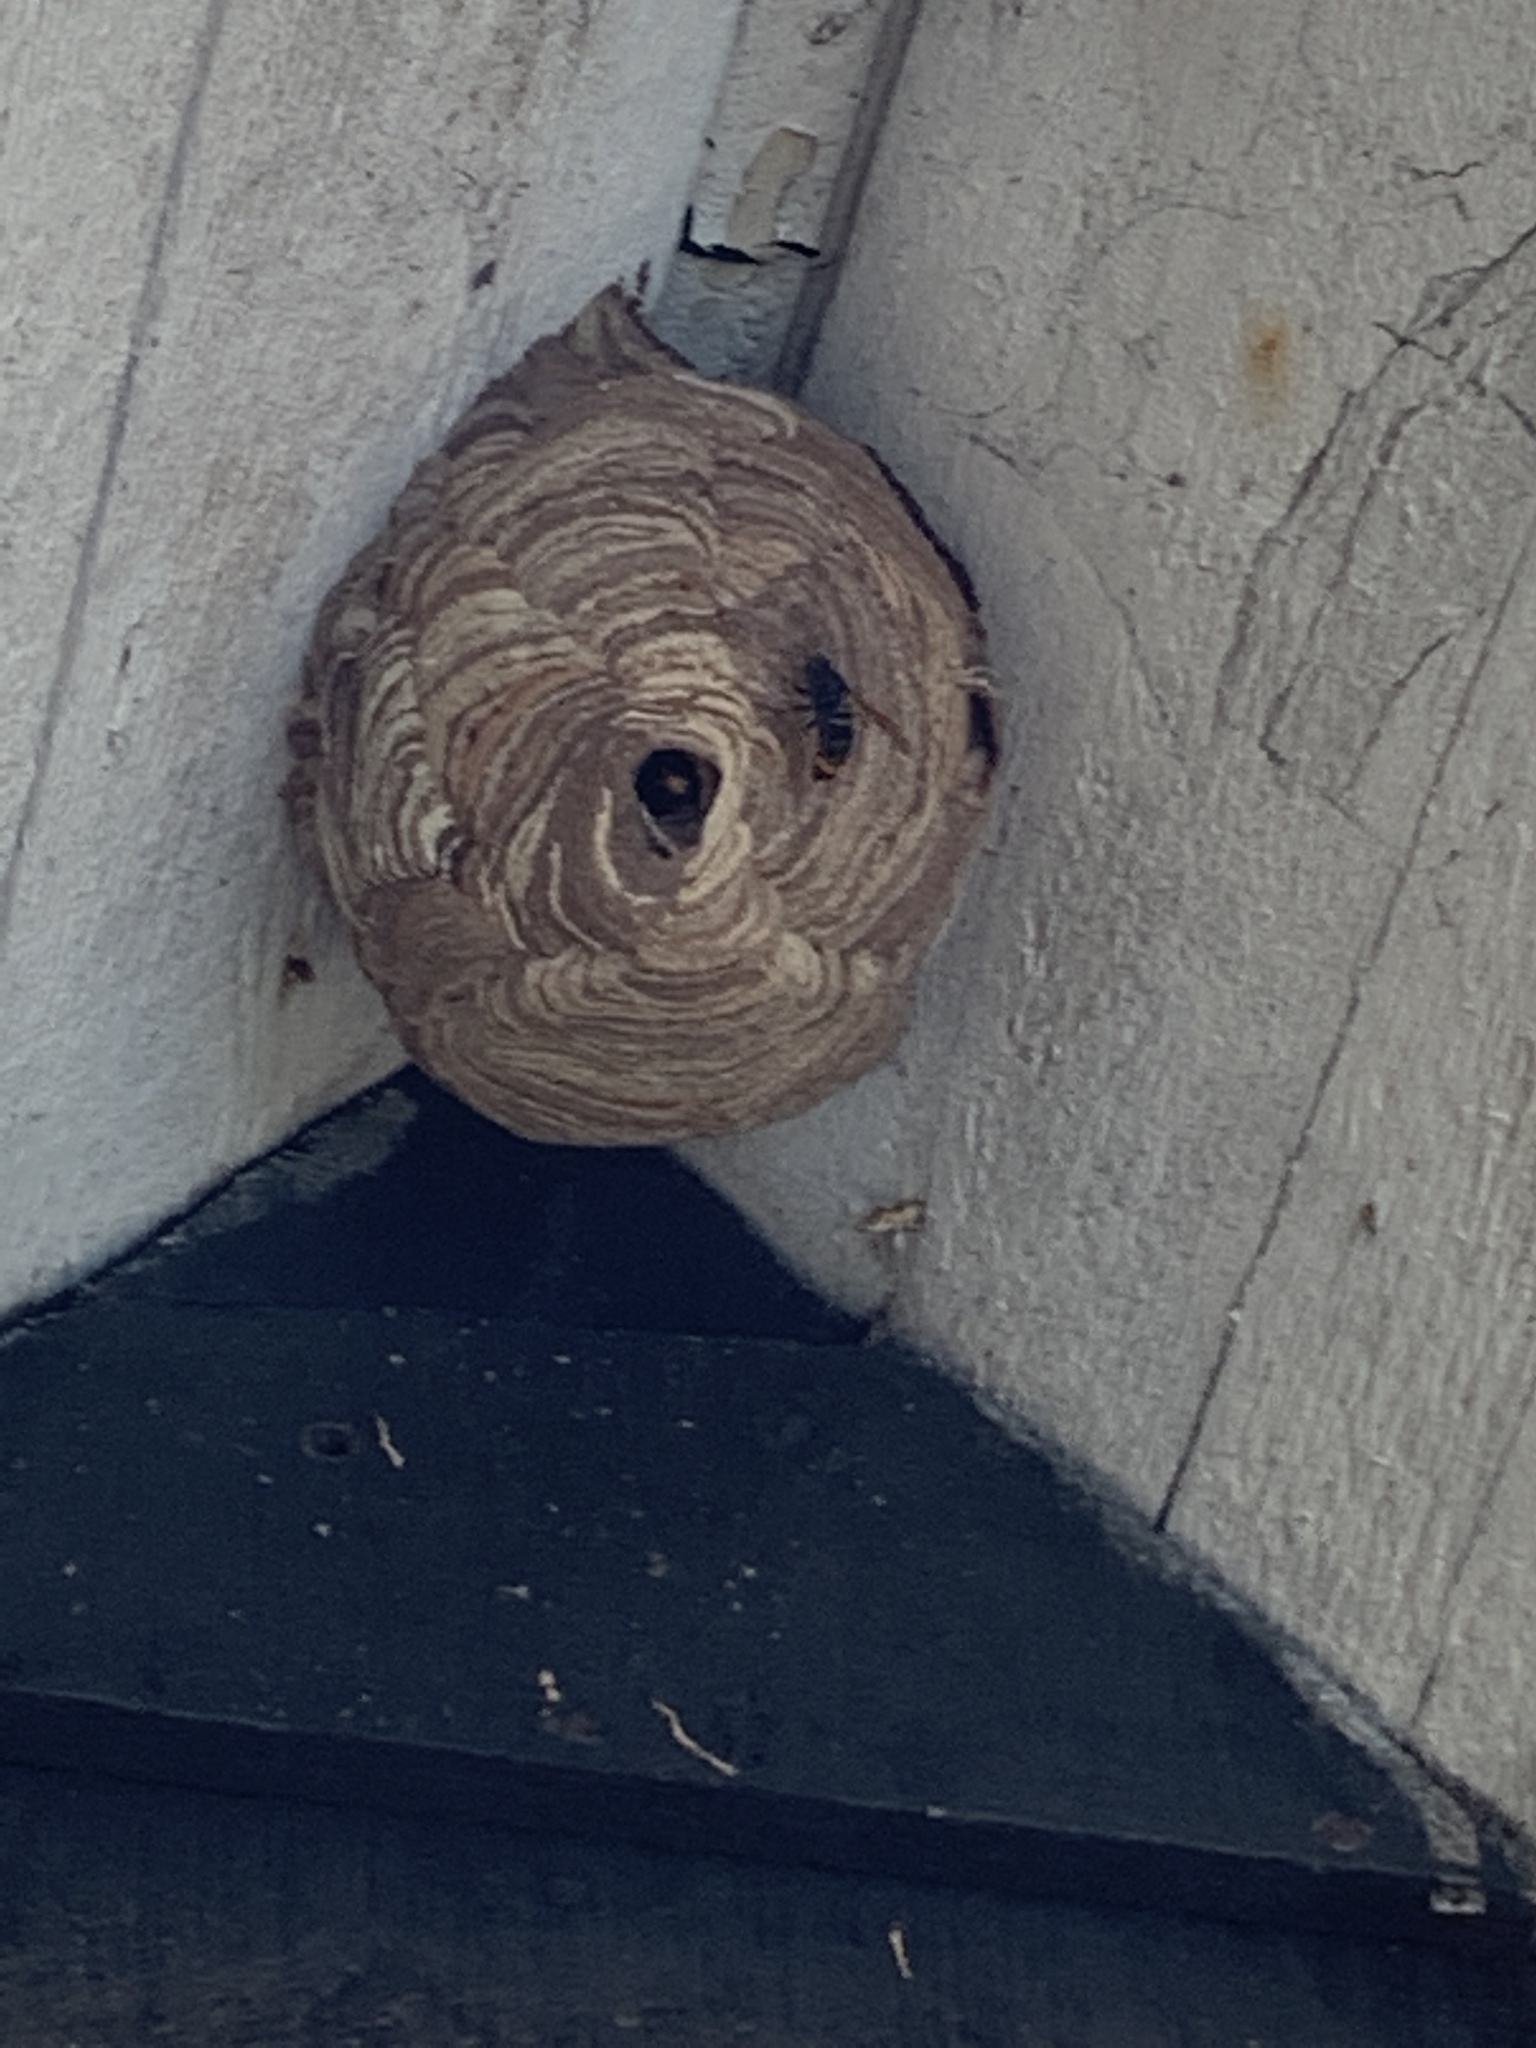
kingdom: Animalia
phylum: Arthropoda
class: Insecta
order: Hymenoptera
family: Vespidae
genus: Vespa
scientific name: Vespa velutina
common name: Asian hornet
